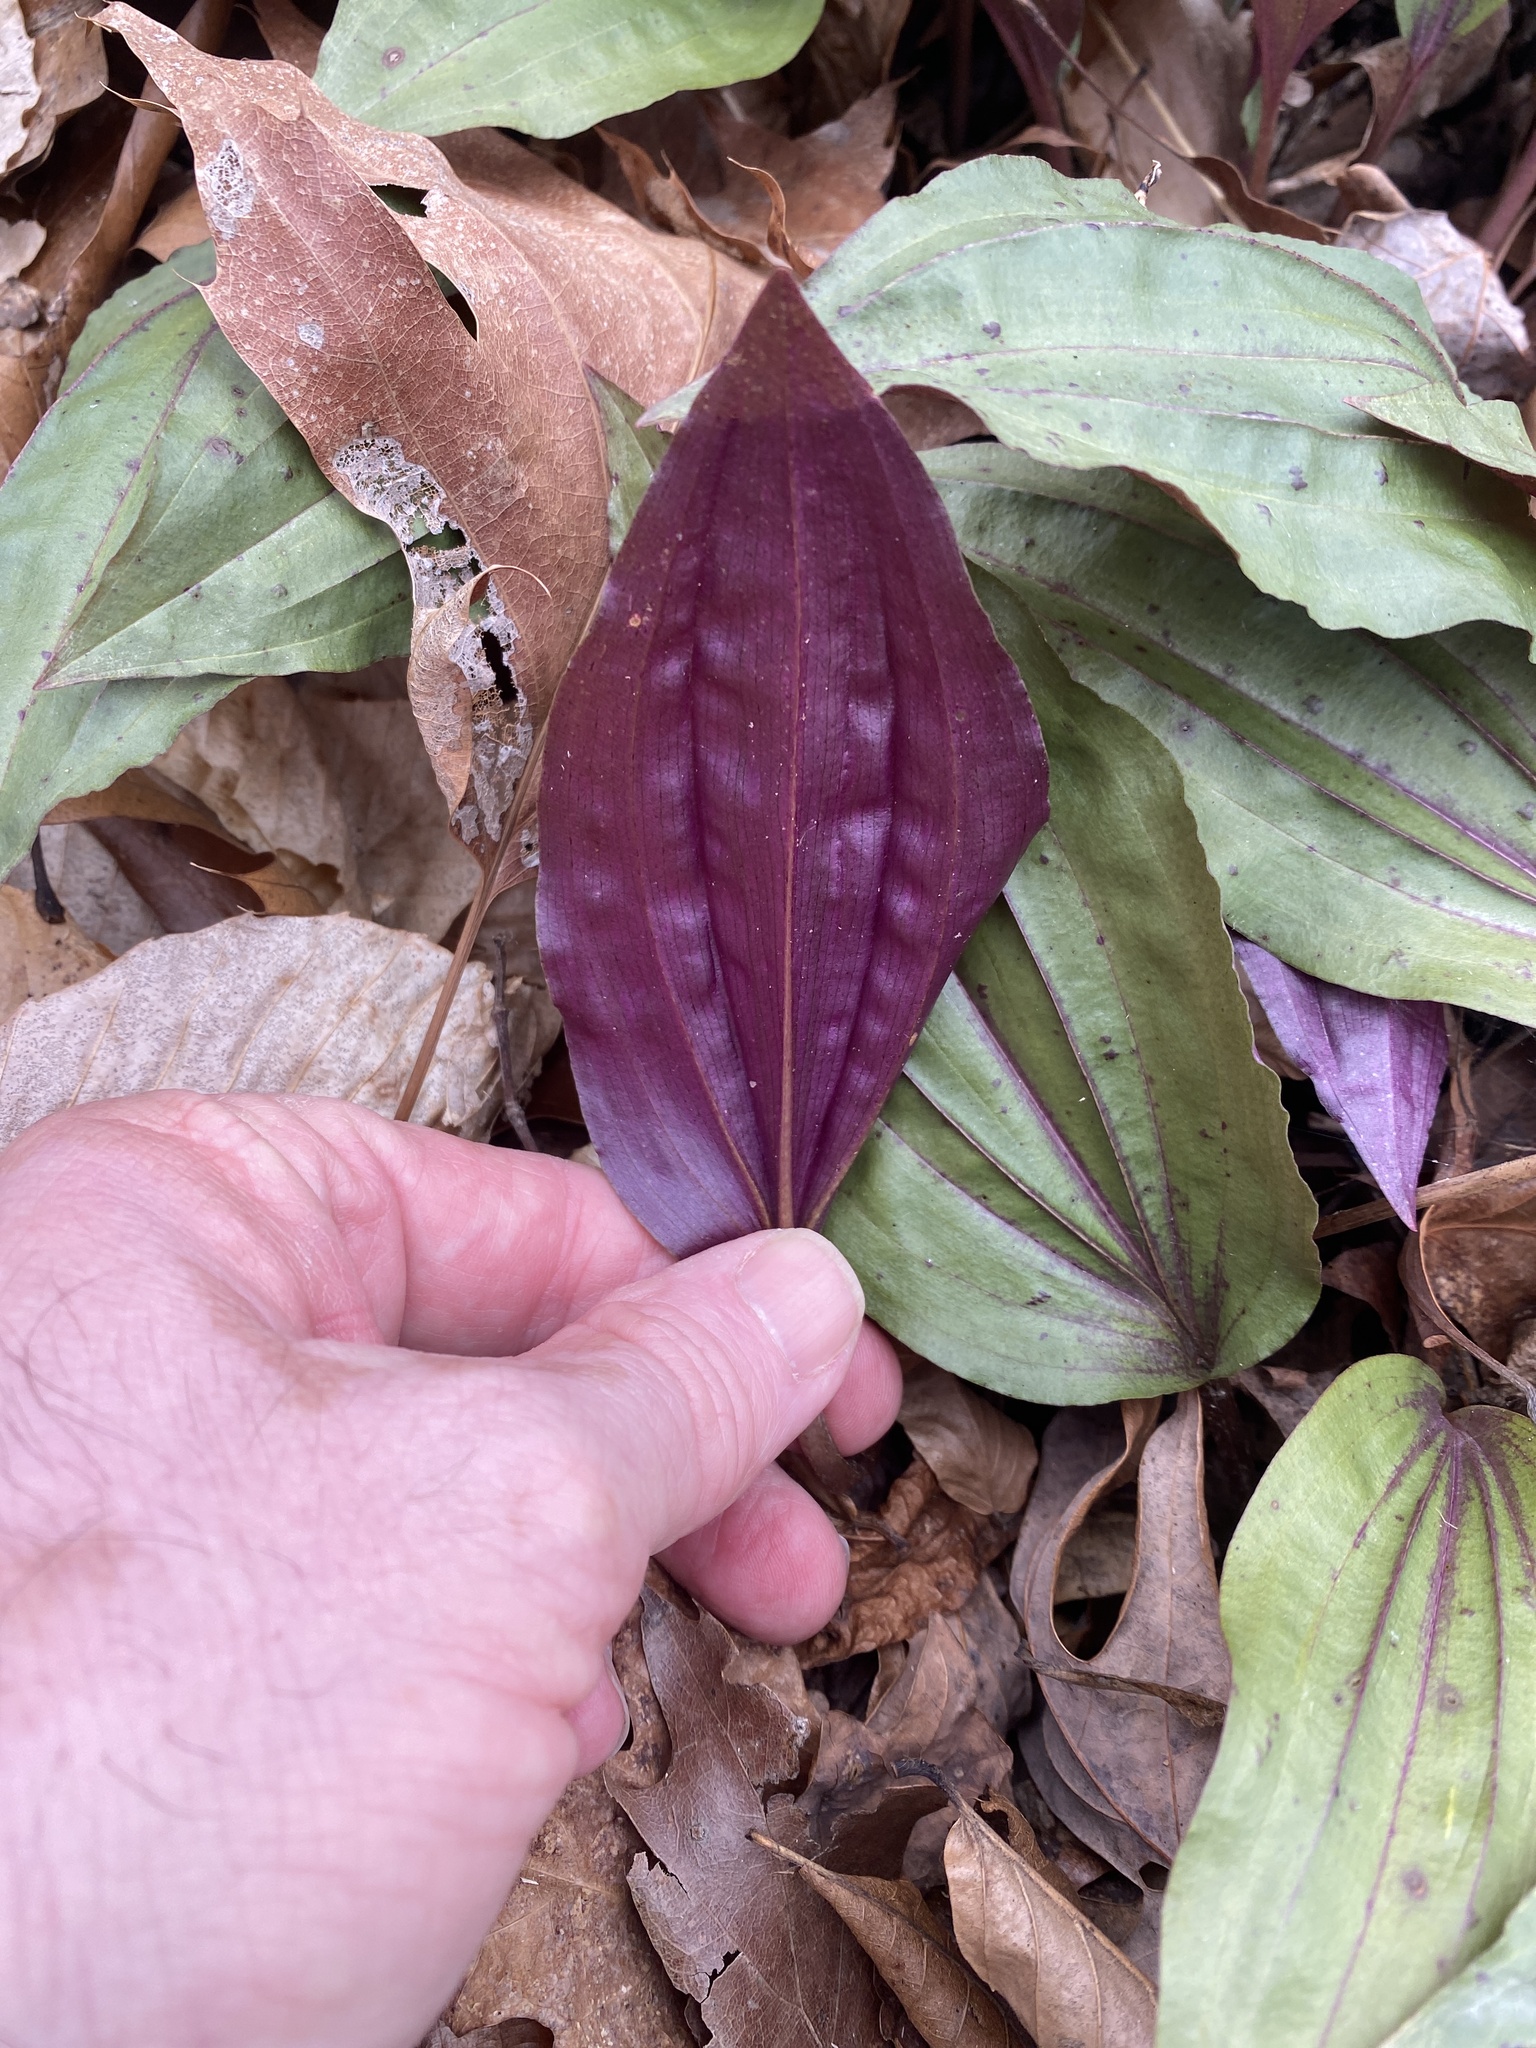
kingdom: Plantae
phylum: Tracheophyta
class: Liliopsida
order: Asparagales
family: Orchidaceae
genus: Tipularia
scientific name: Tipularia discolor
